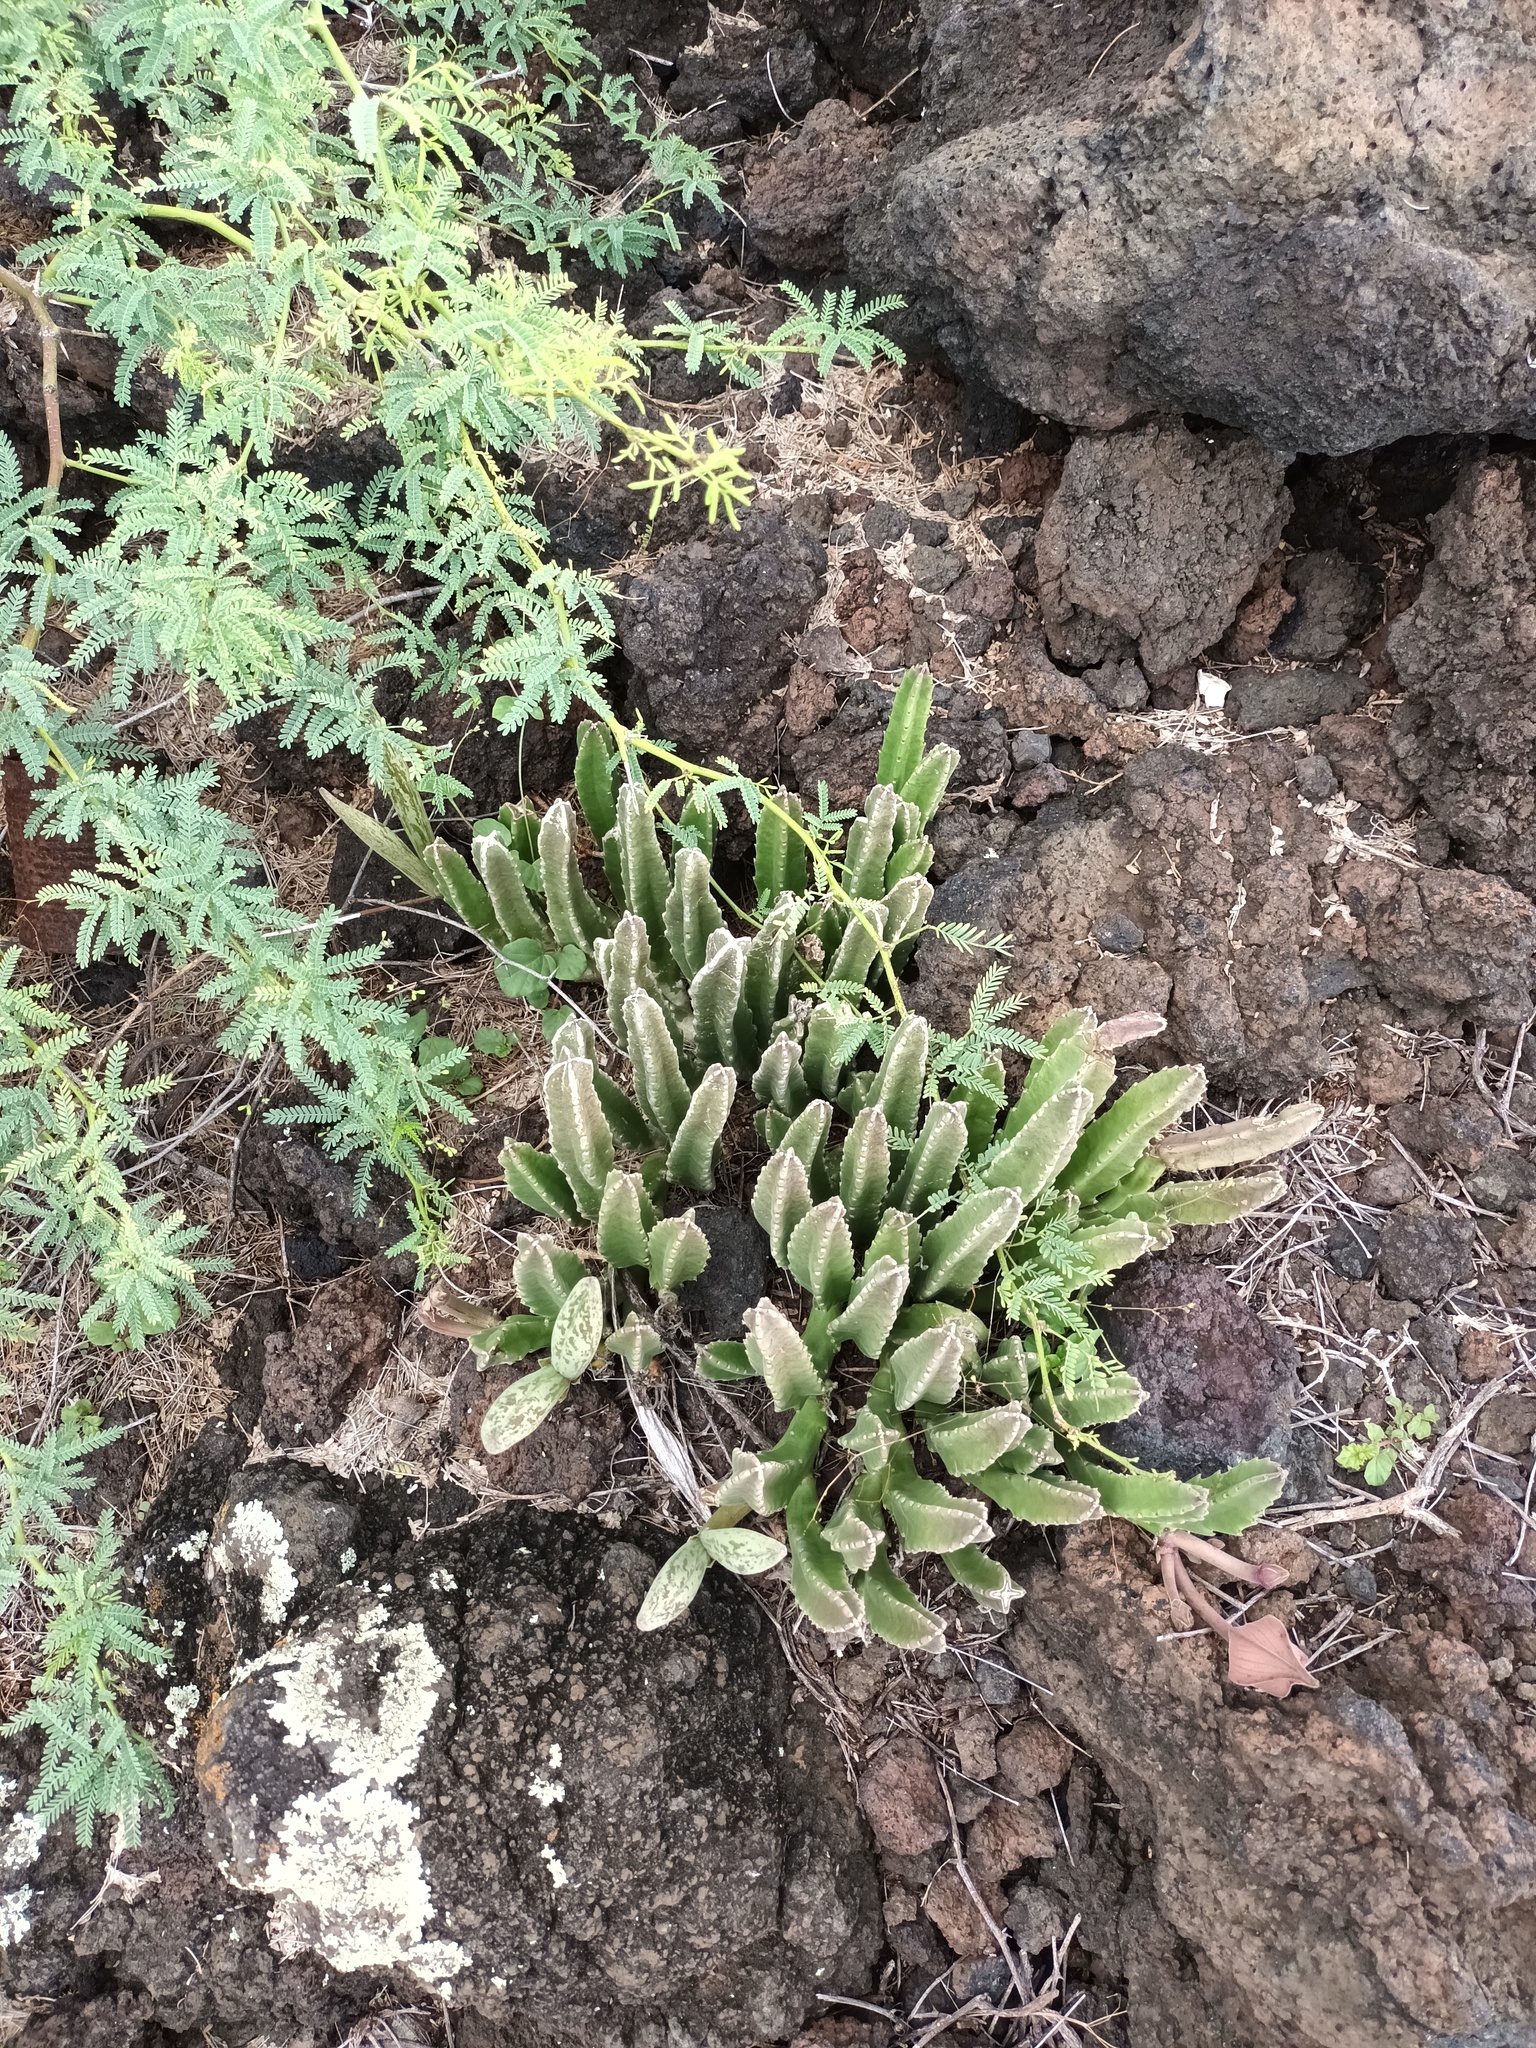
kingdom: Plantae
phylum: Tracheophyta
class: Magnoliopsida
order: Gentianales
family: Apocynaceae
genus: Ceropegia
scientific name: Ceropegia gigantea
